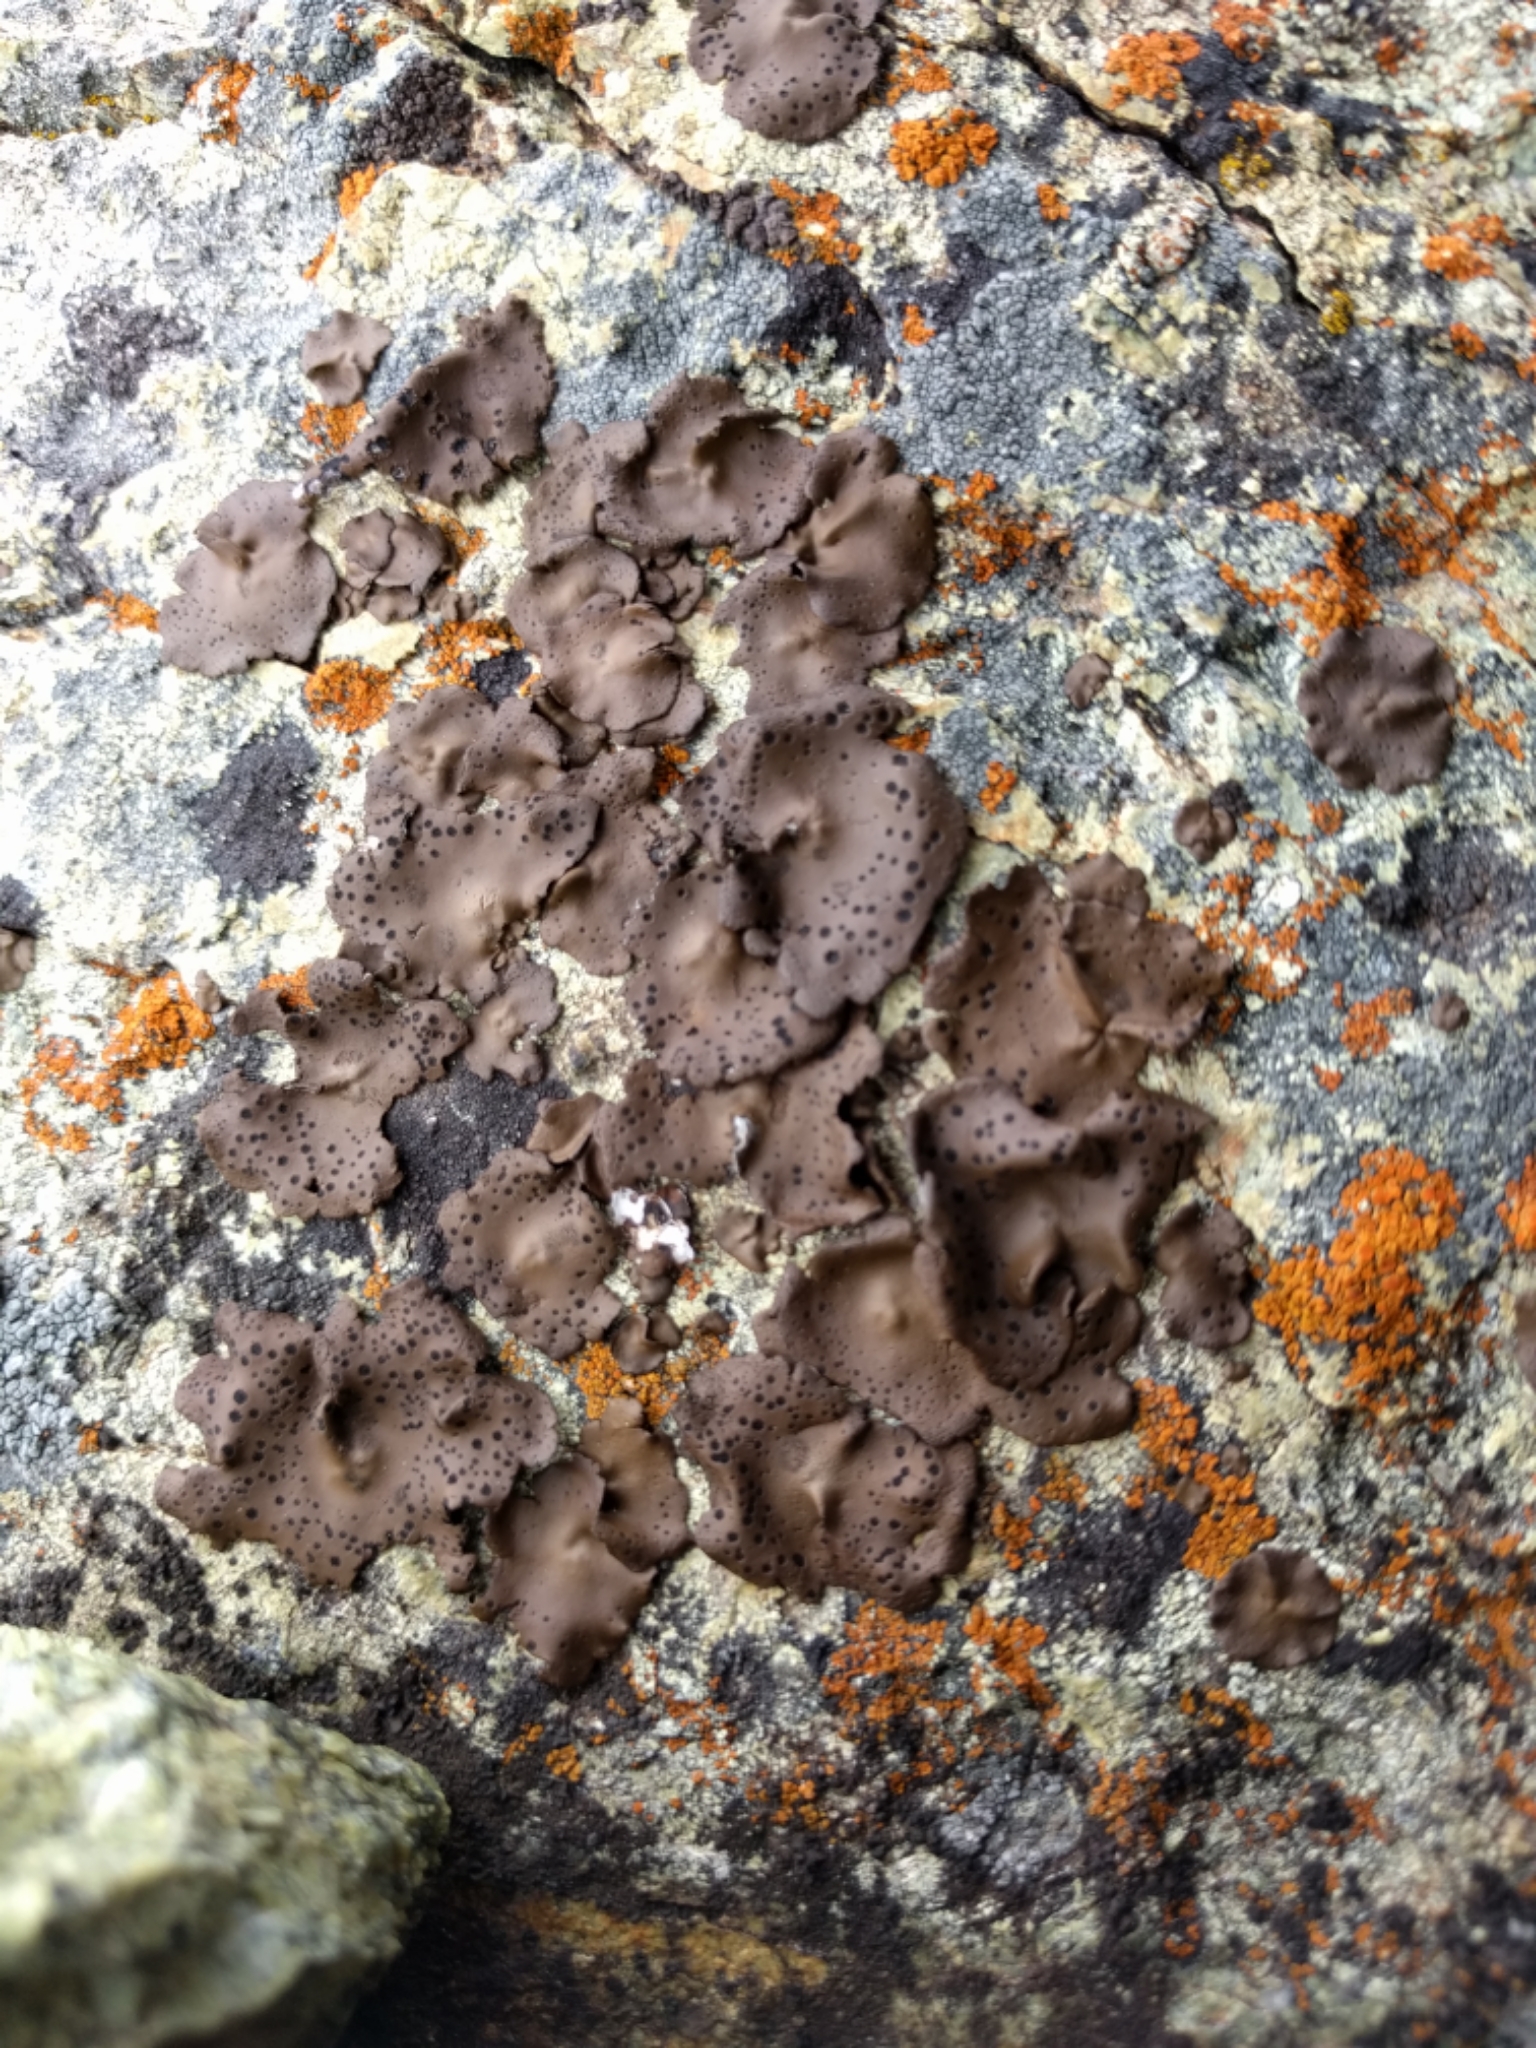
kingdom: Fungi
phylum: Ascomycota
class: Lecanoromycetes
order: Umbilicariales
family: Umbilicariaceae
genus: Umbilicaria
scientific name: Umbilicaria phaea
